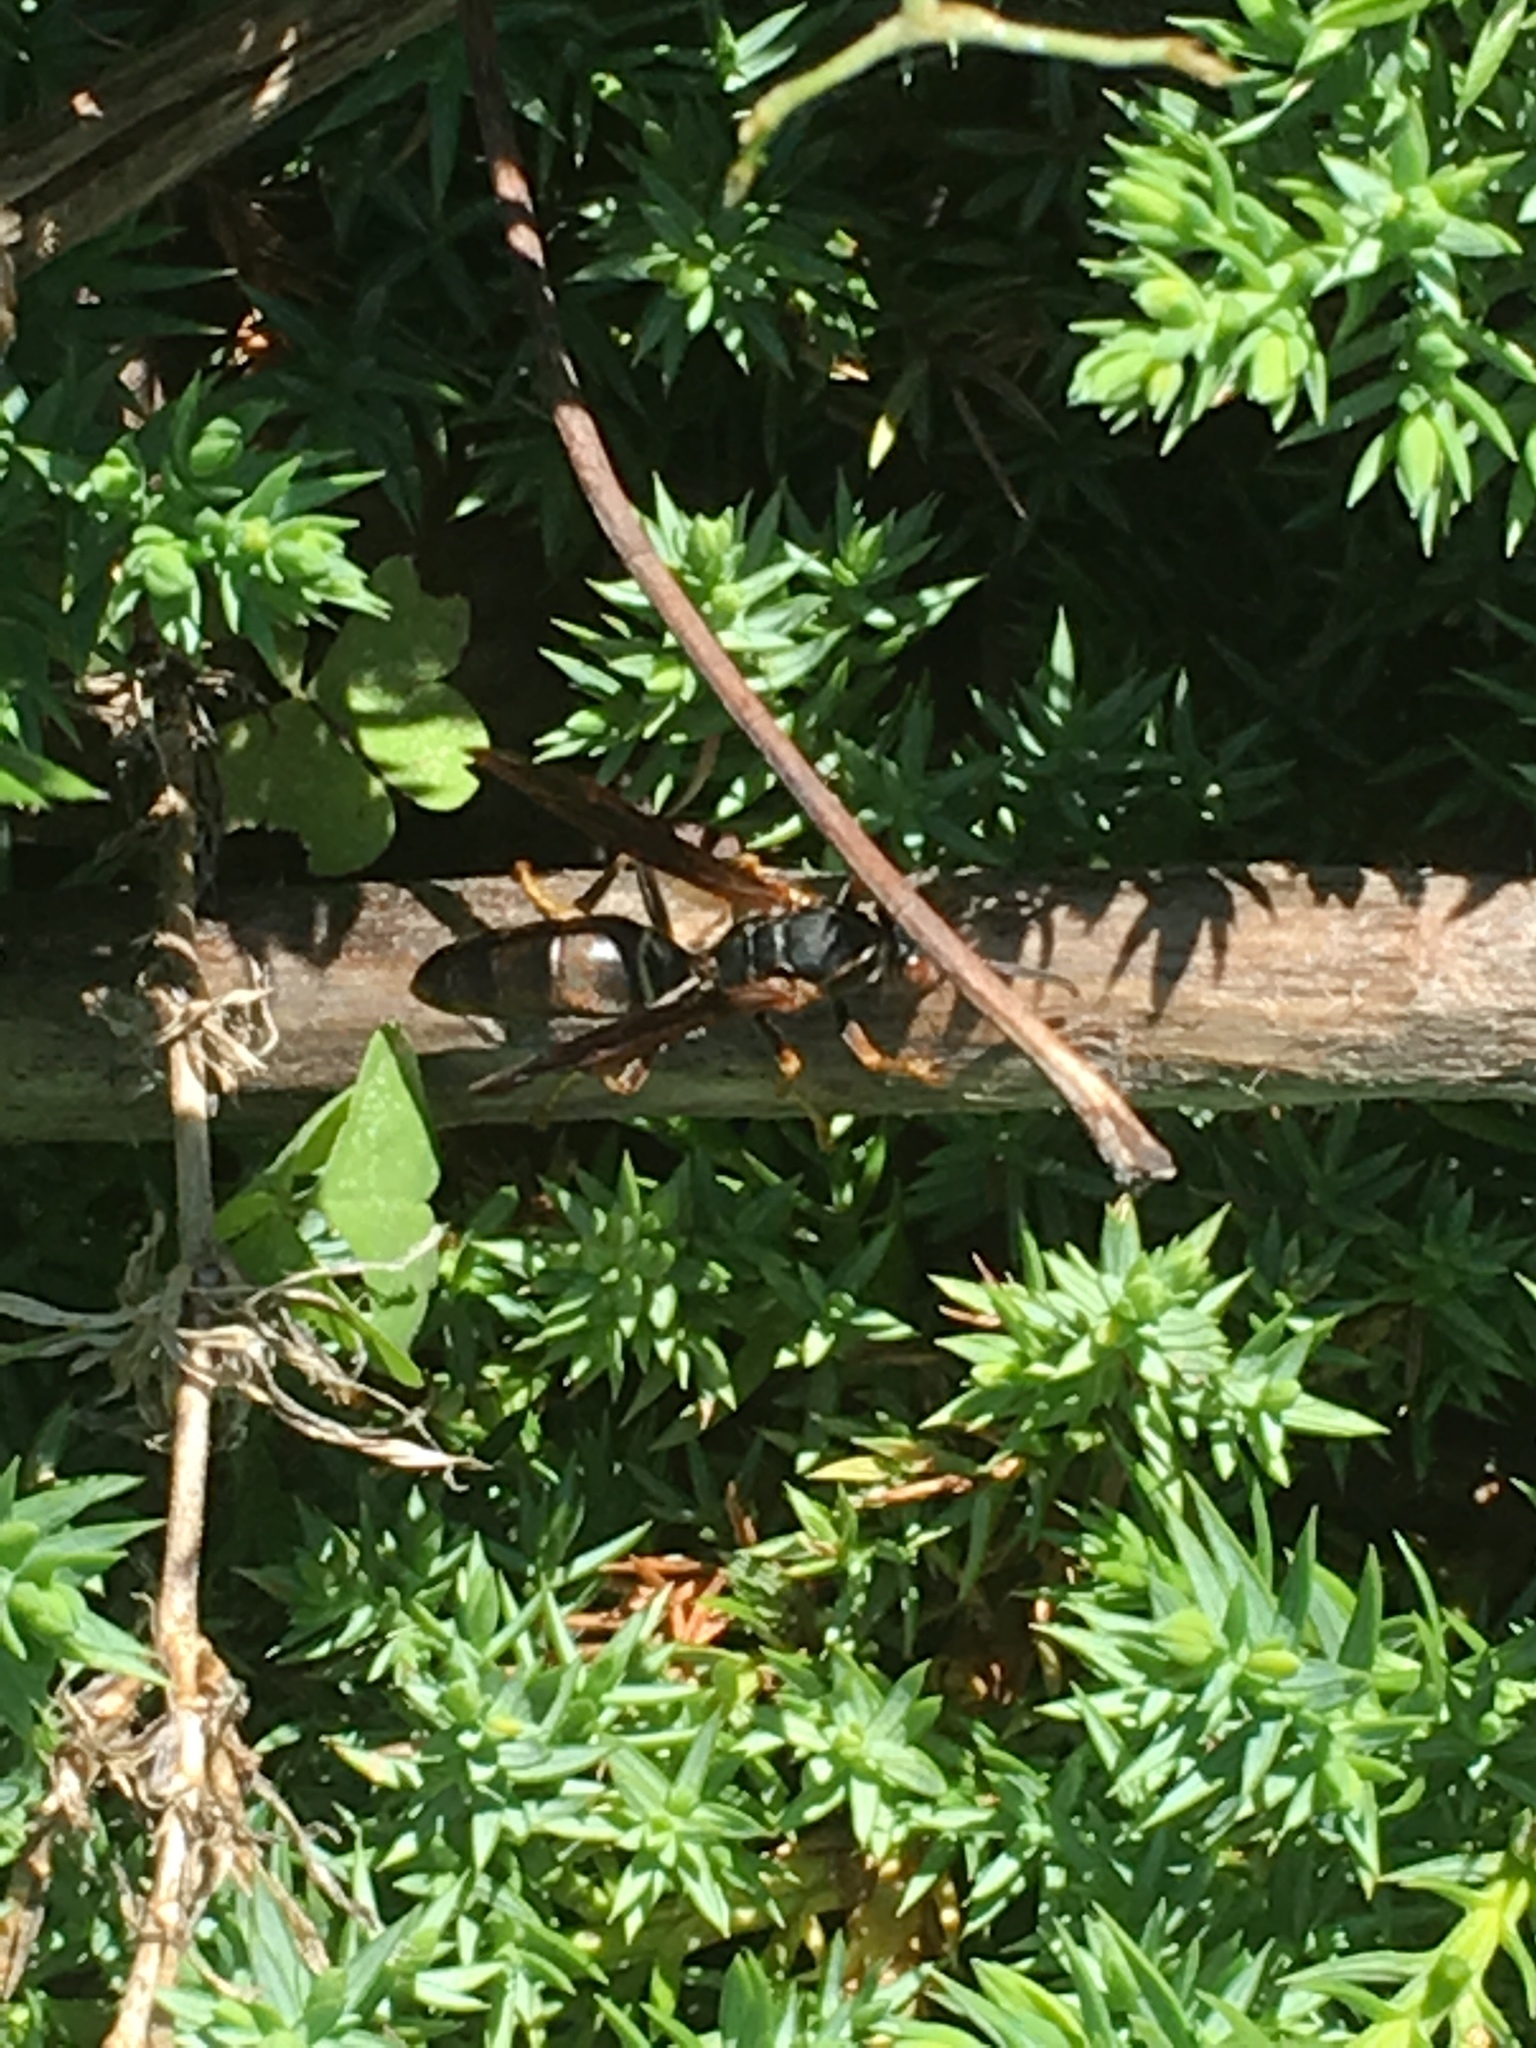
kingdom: Animalia
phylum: Arthropoda
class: Insecta
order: Hymenoptera
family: Eumenidae
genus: Polistes
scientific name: Polistes fuscatus
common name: Dark paper wasp
